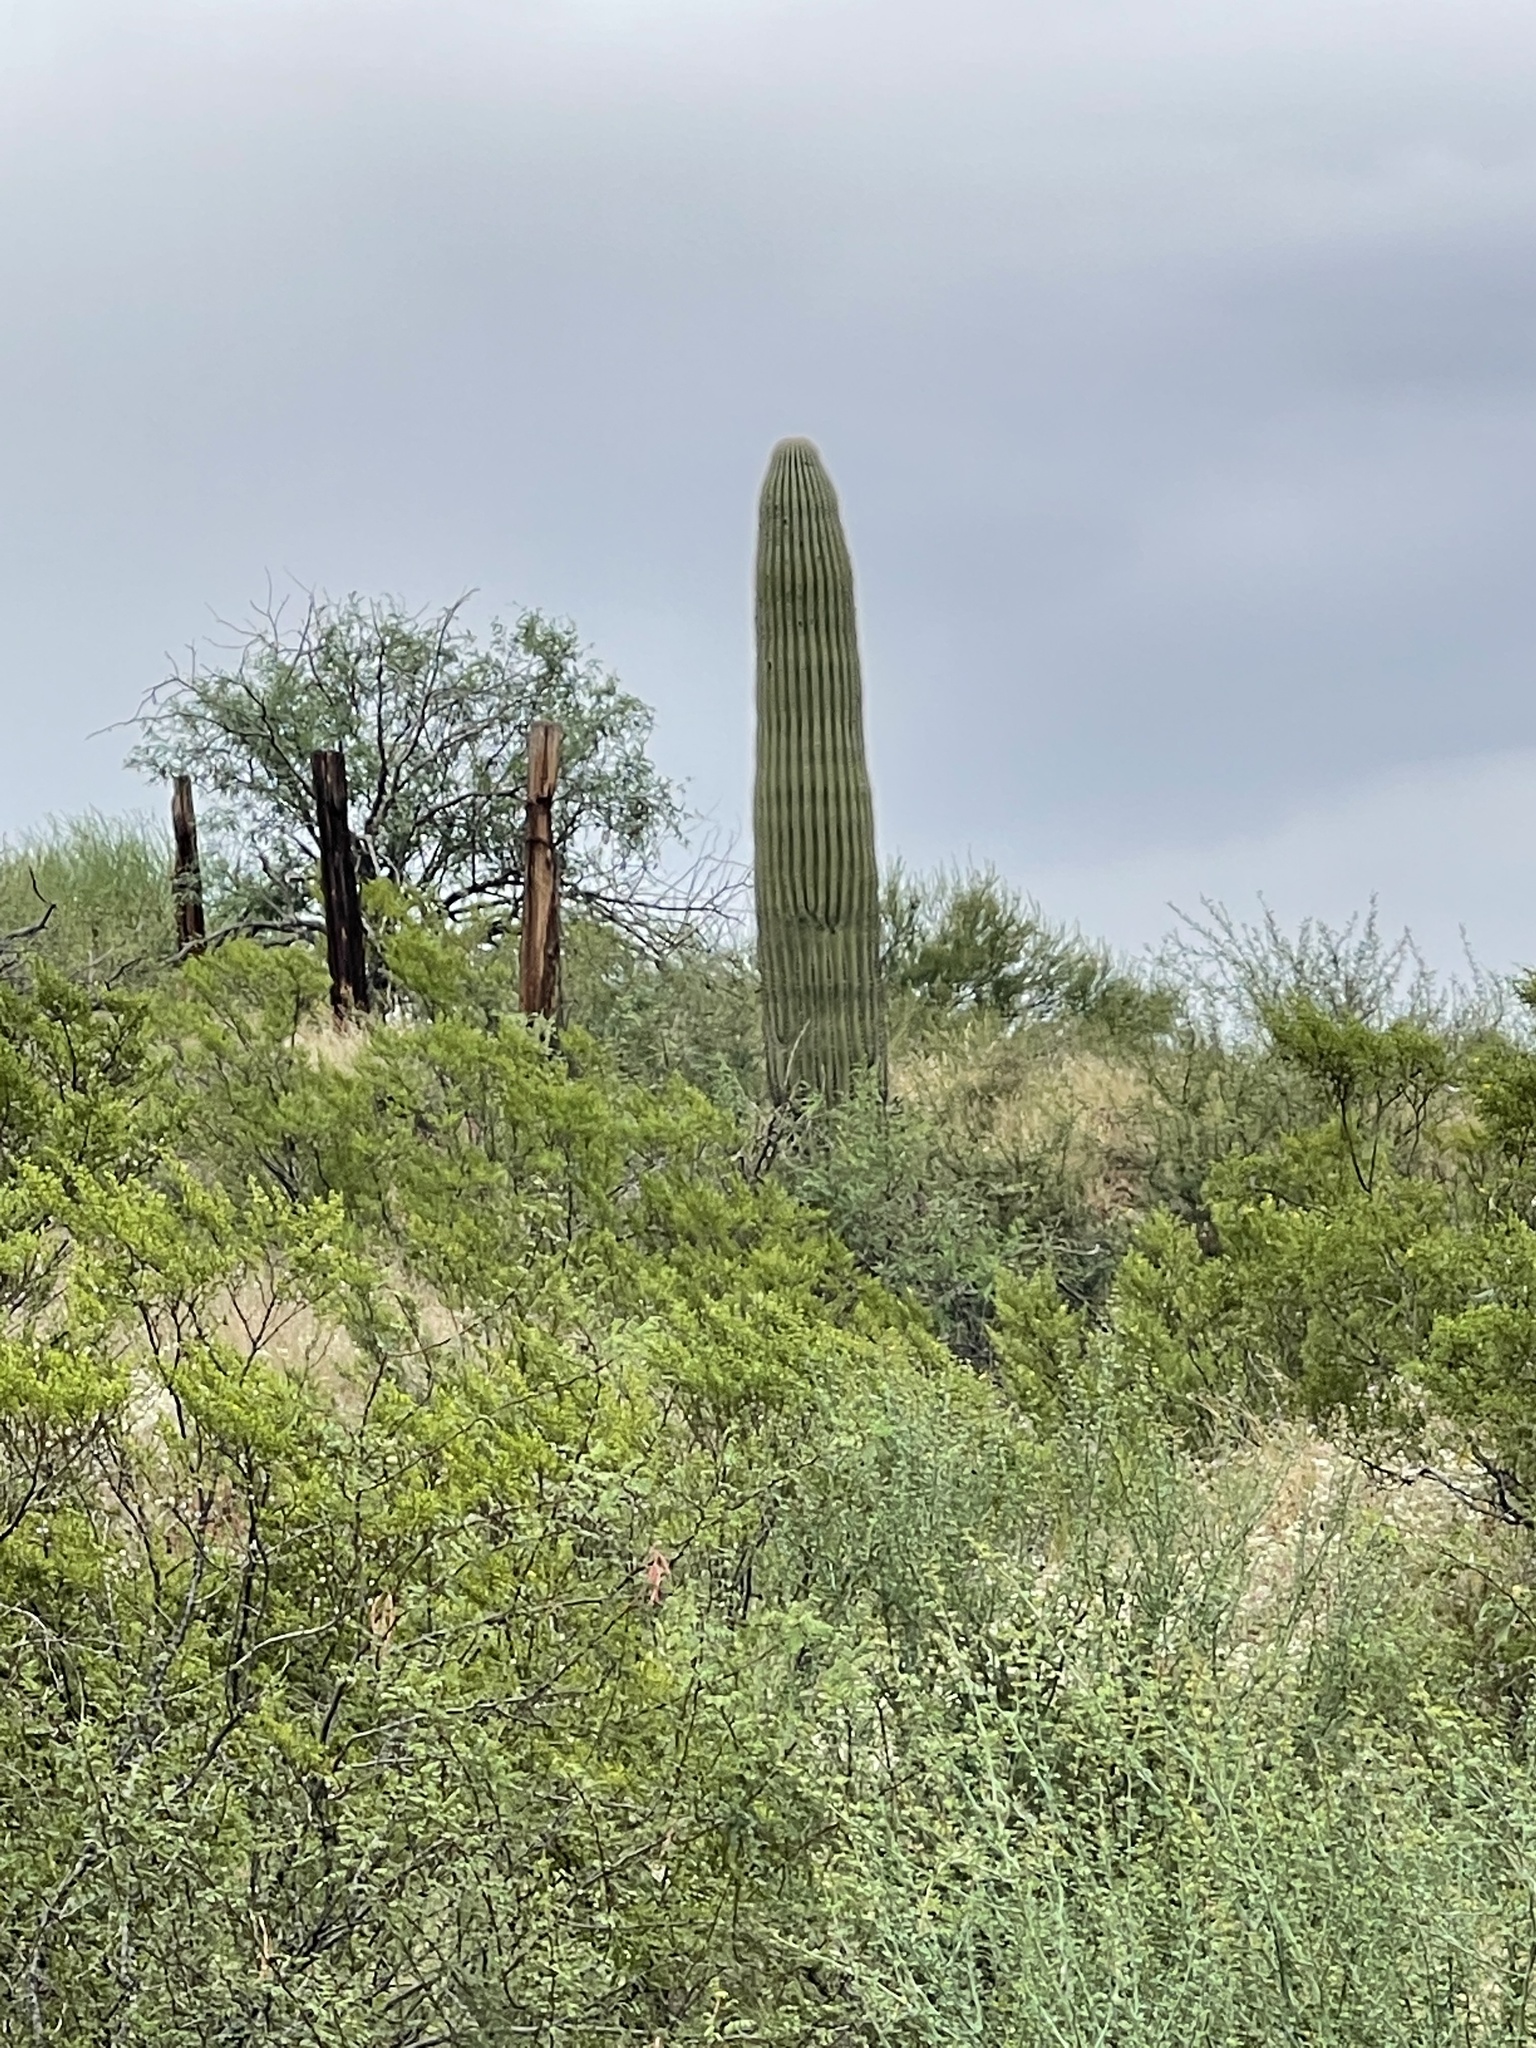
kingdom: Plantae
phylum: Tracheophyta
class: Magnoliopsida
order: Caryophyllales
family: Cactaceae
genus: Carnegiea
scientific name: Carnegiea gigantea
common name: Saguaro
